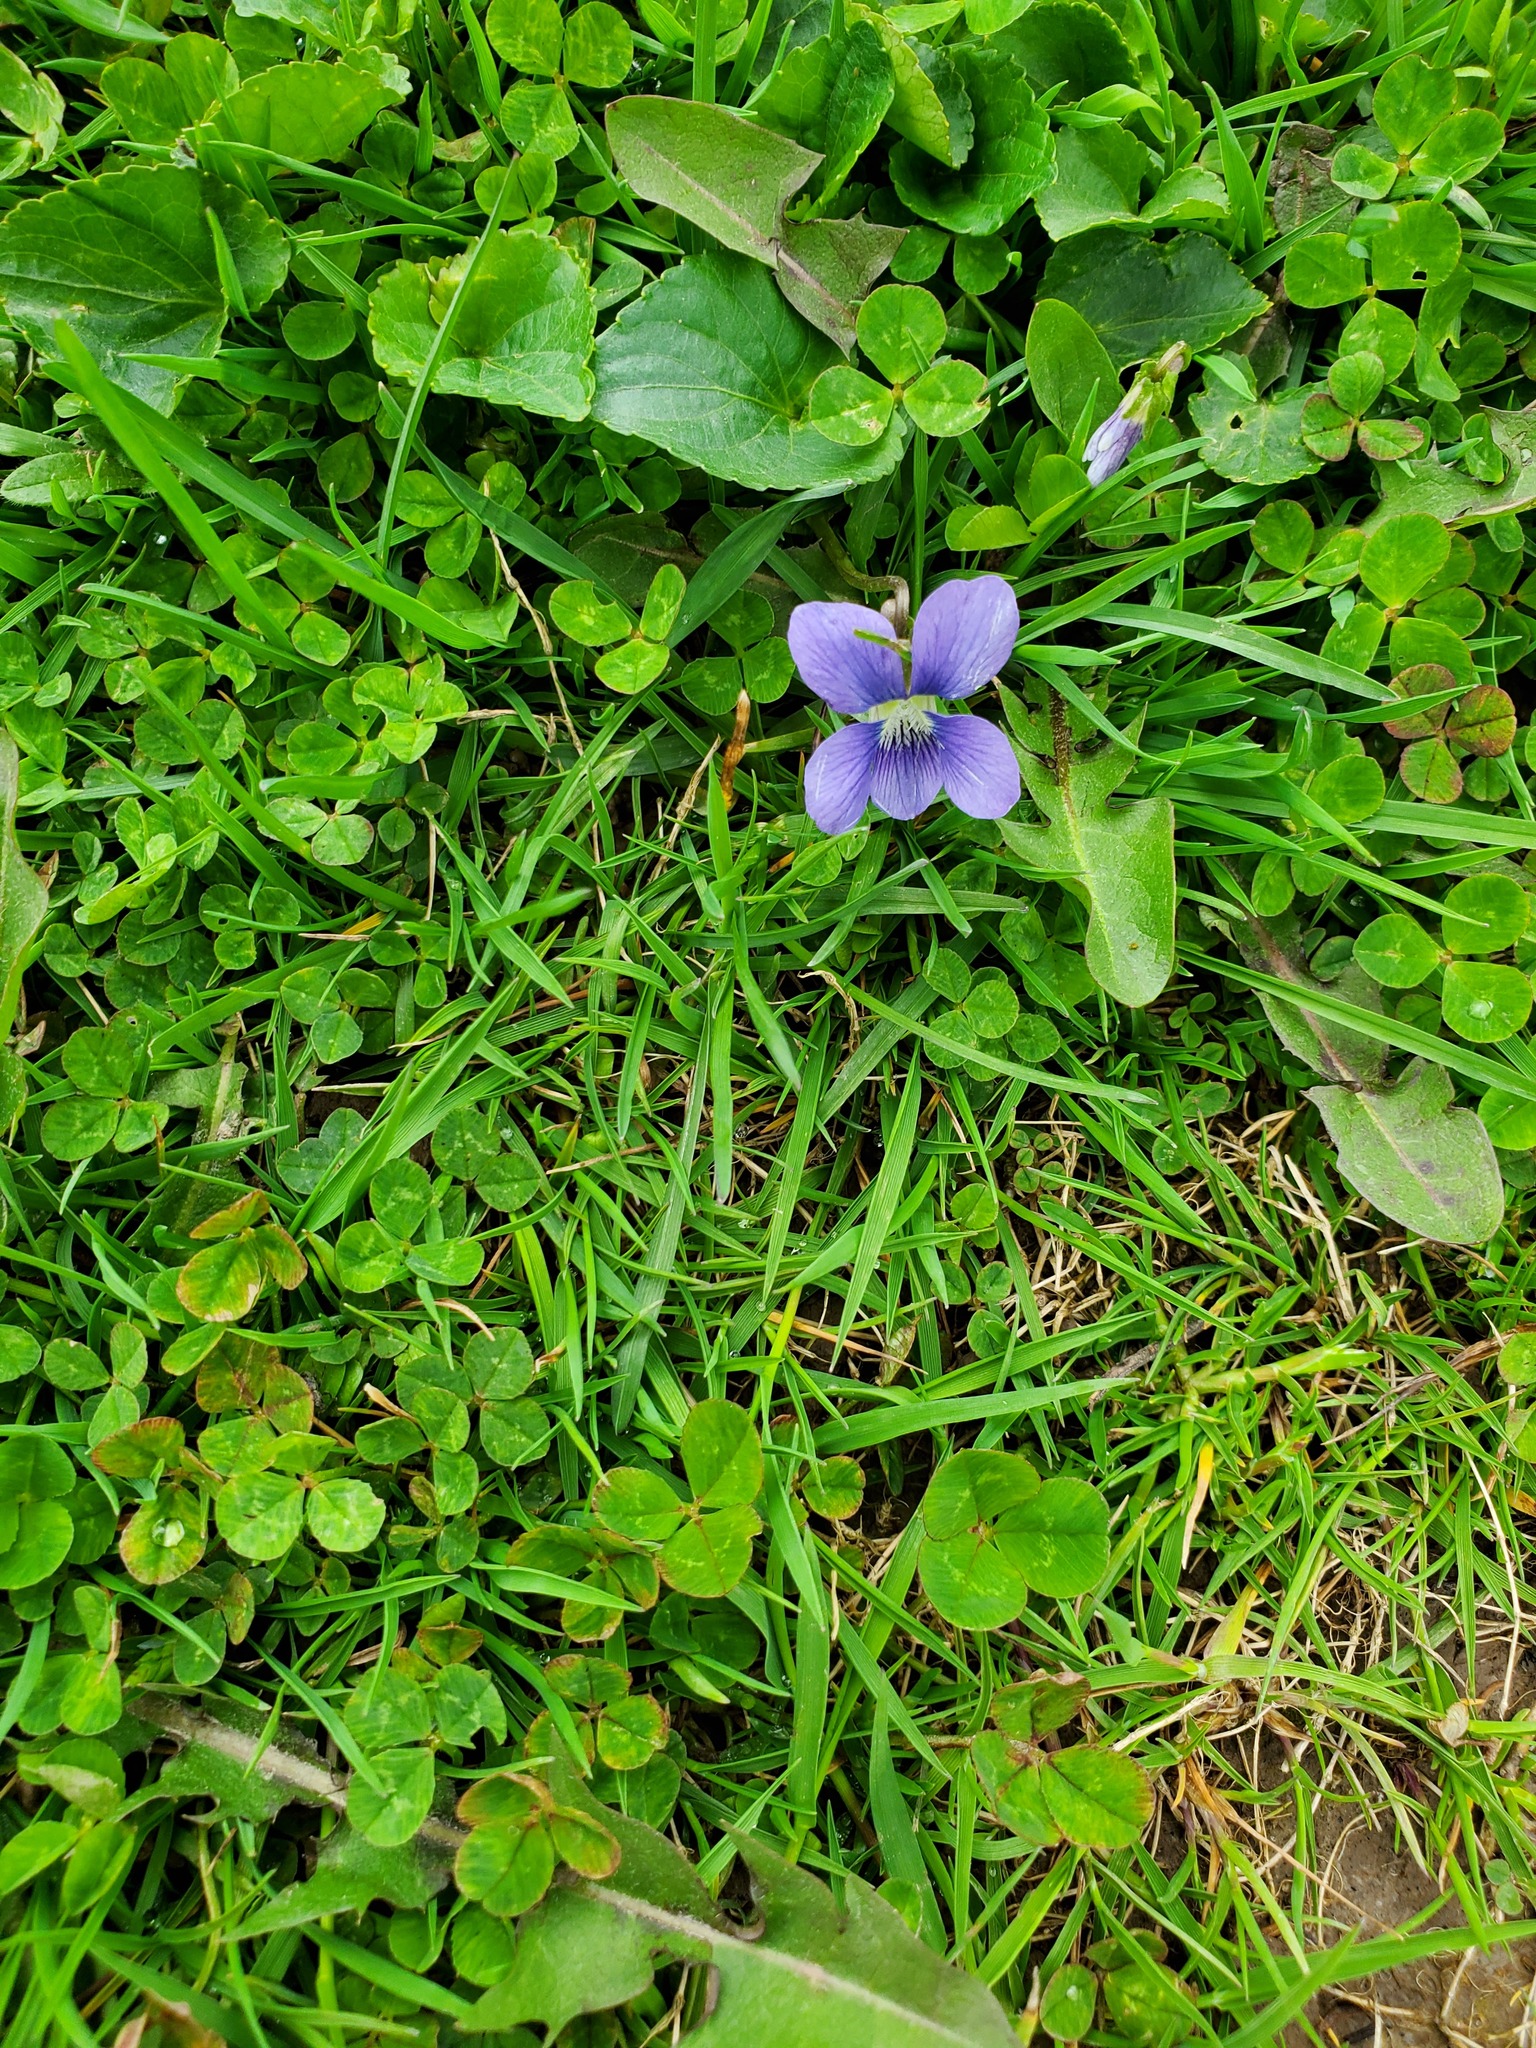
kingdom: Plantae
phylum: Tracheophyta
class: Magnoliopsida
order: Malpighiales
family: Violaceae
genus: Viola
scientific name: Viola sororia
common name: Dooryard violet
